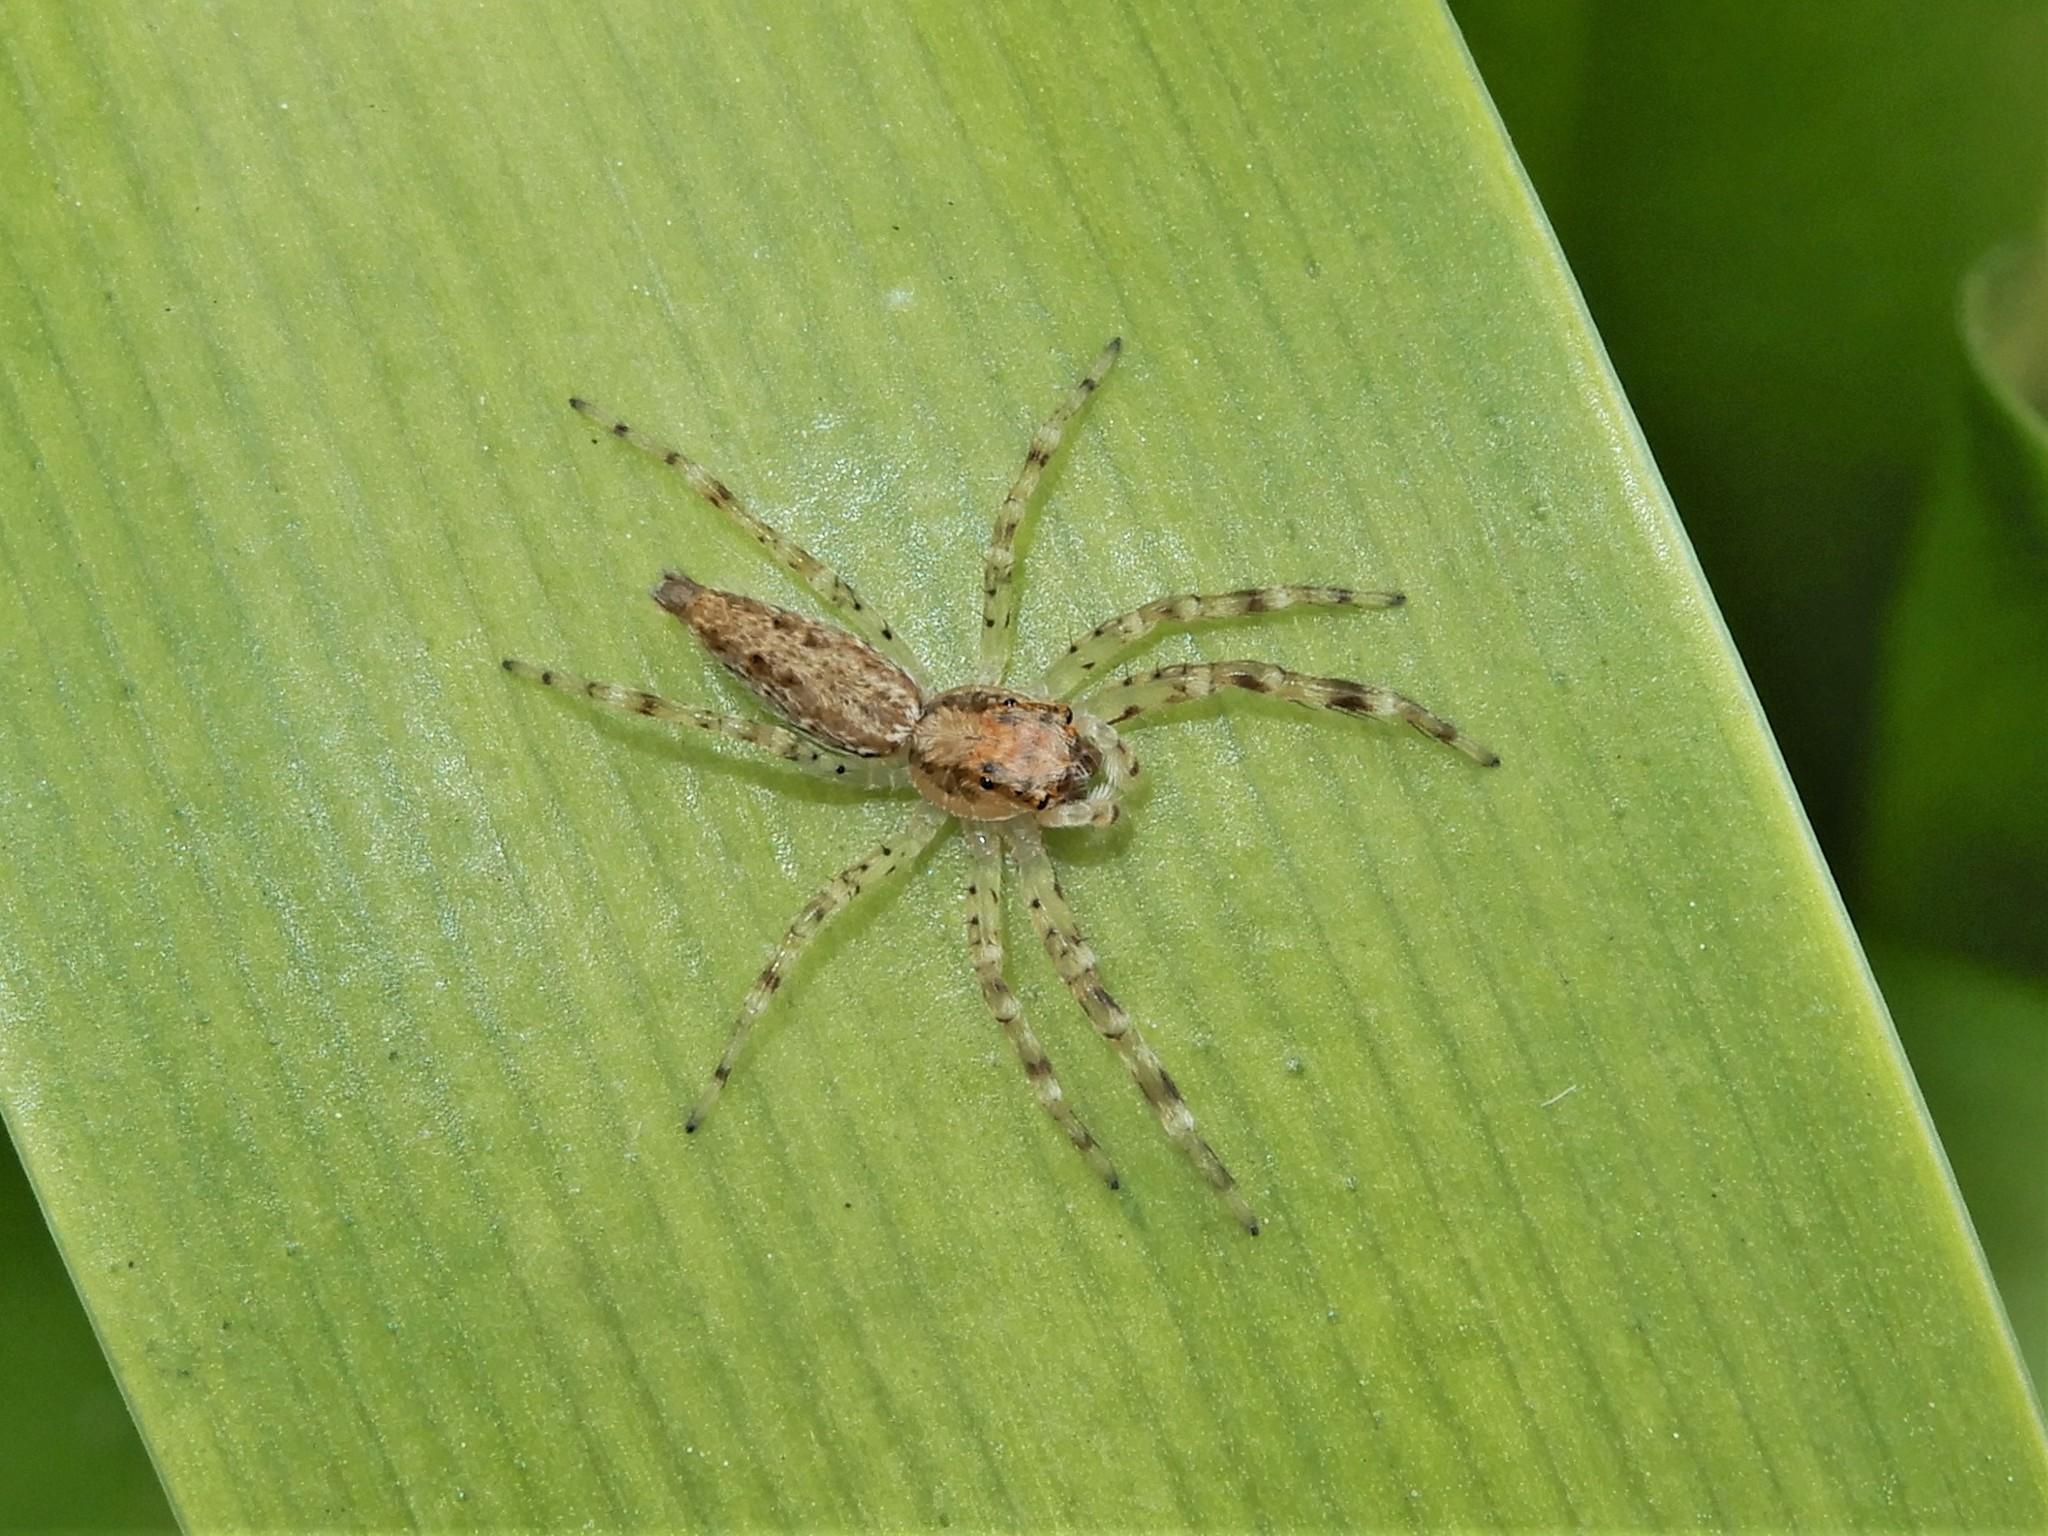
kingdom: Animalia
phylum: Arthropoda
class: Arachnida
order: Araneae
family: Salticidae
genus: Helpis
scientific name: Helpis minitabunda
